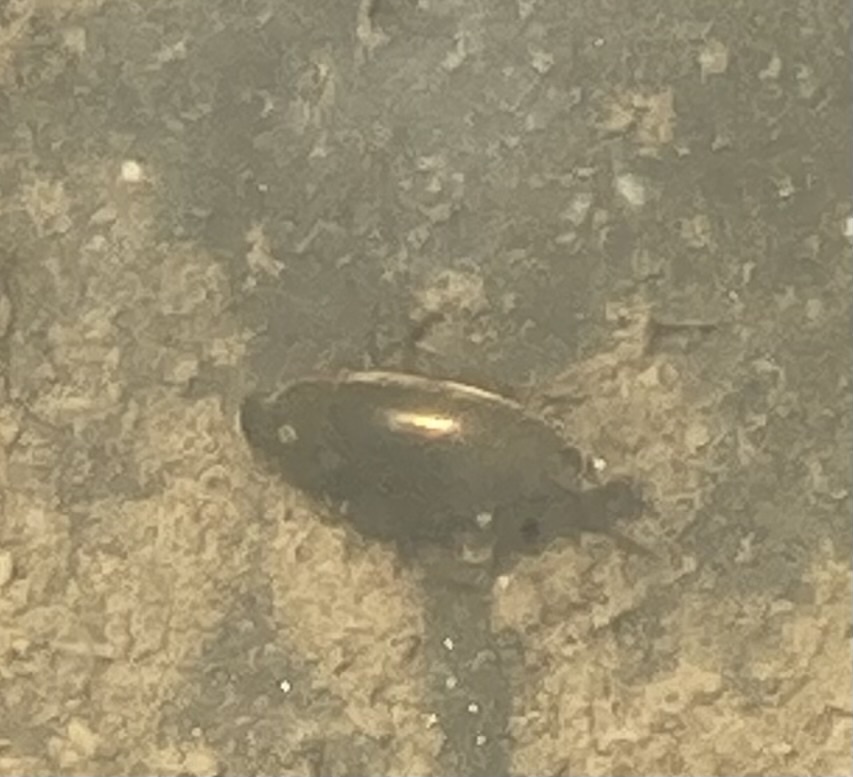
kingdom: Animalia
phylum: Arthropoda
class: Insecta
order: Coleoptera
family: Hydrophilidae
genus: Tropisternus
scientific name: Tropisternus lateralis
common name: Lateral-banded water scavenger beetle
